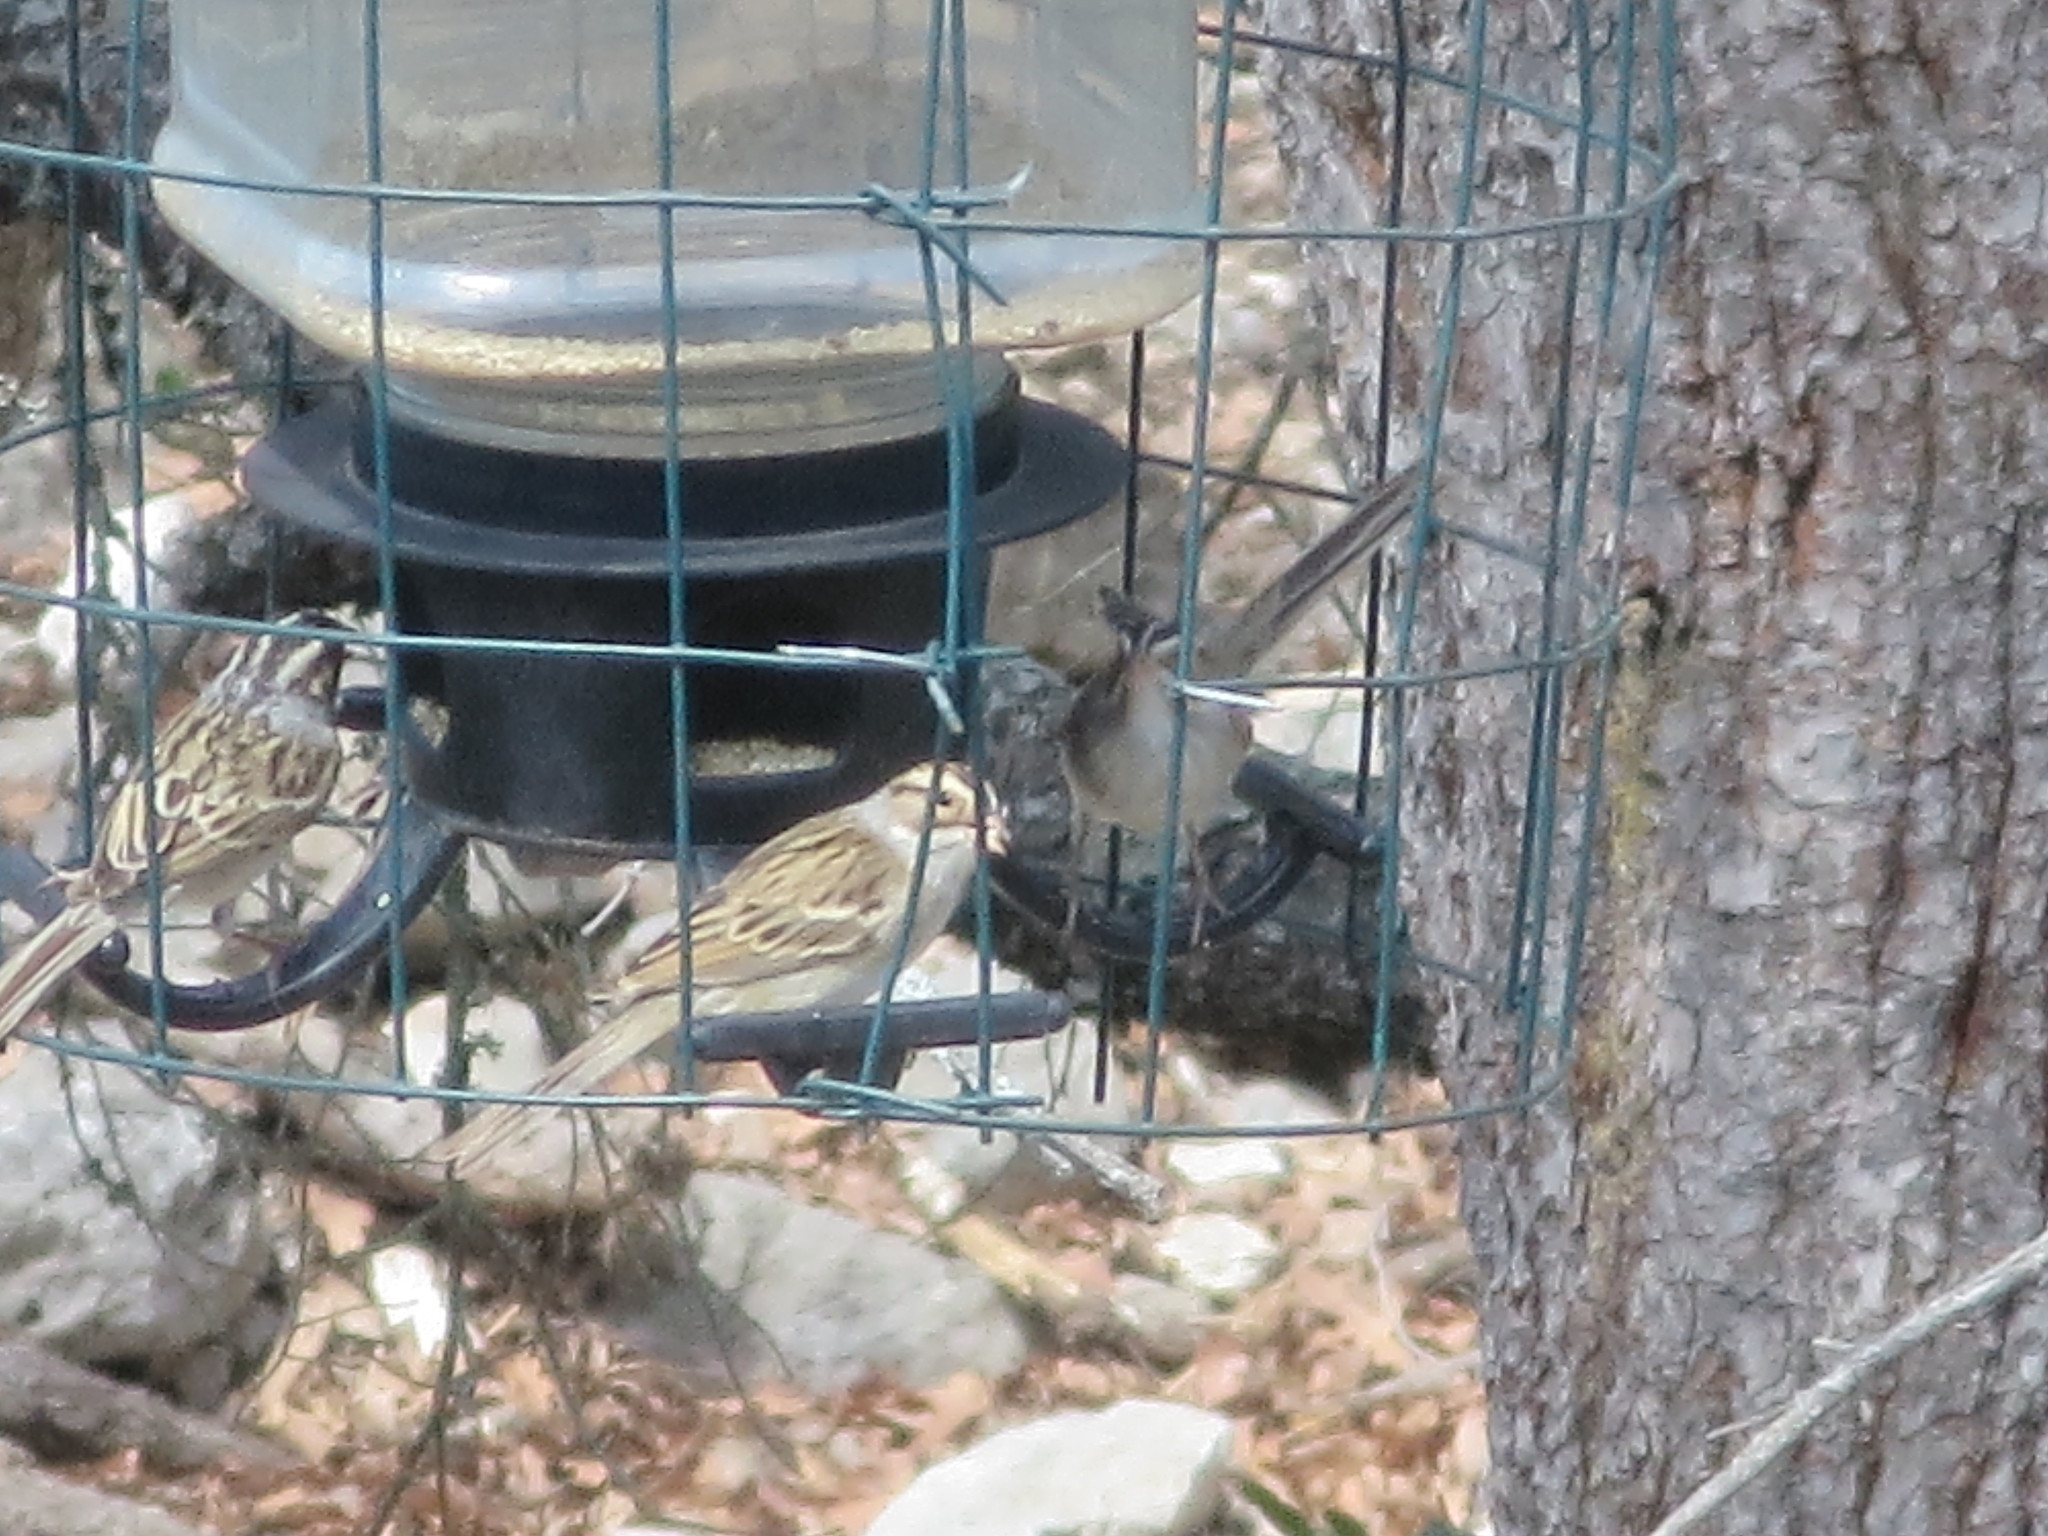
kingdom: Animalia
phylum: Chordata
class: Aves
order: Passeriformes
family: Passerellidae
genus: Spizella
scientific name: Spizella pallida
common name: Clay-colored sparrow
